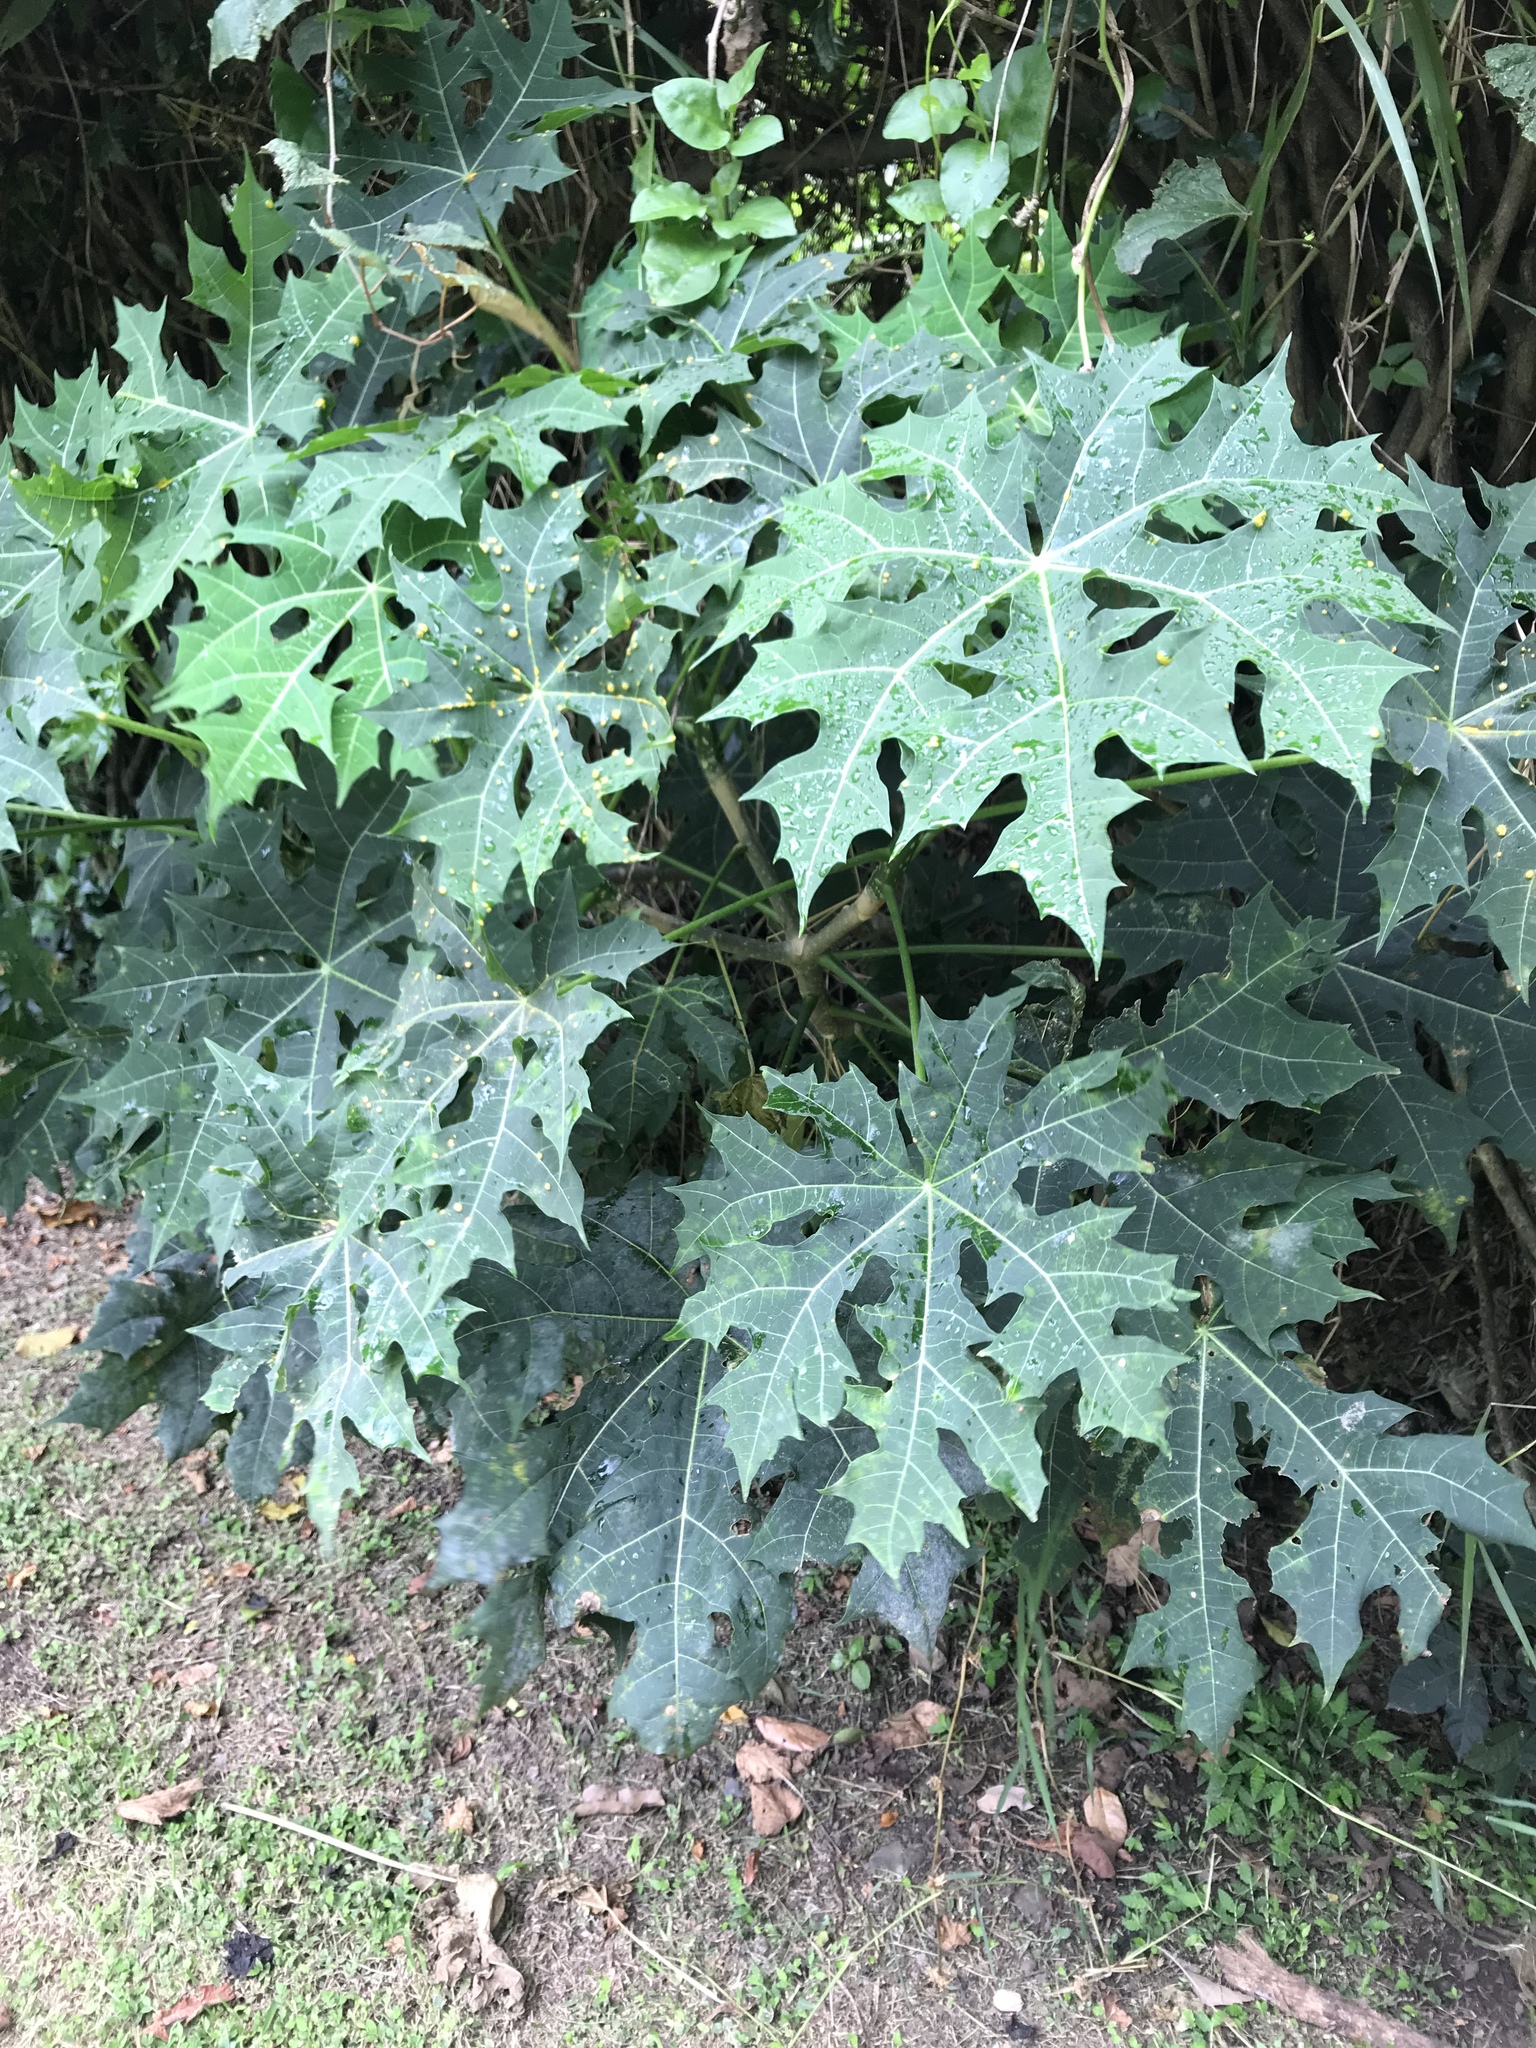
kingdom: Plantae
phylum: Tracheophyta
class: Magnoliopsida
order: Malpighiales
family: Euphorbiaceae
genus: Cnidoscolus
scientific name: Cnidoscolus aconitifolius
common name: Cabbage-star
